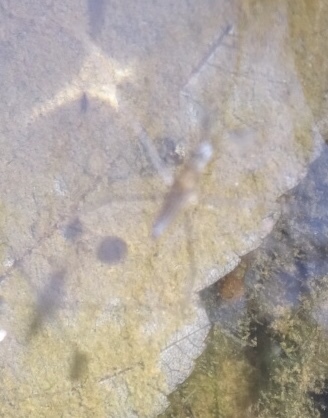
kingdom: Animalia
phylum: Arthropoda
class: Insecta
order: Hemiptera
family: Gerridae
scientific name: Gerridae
